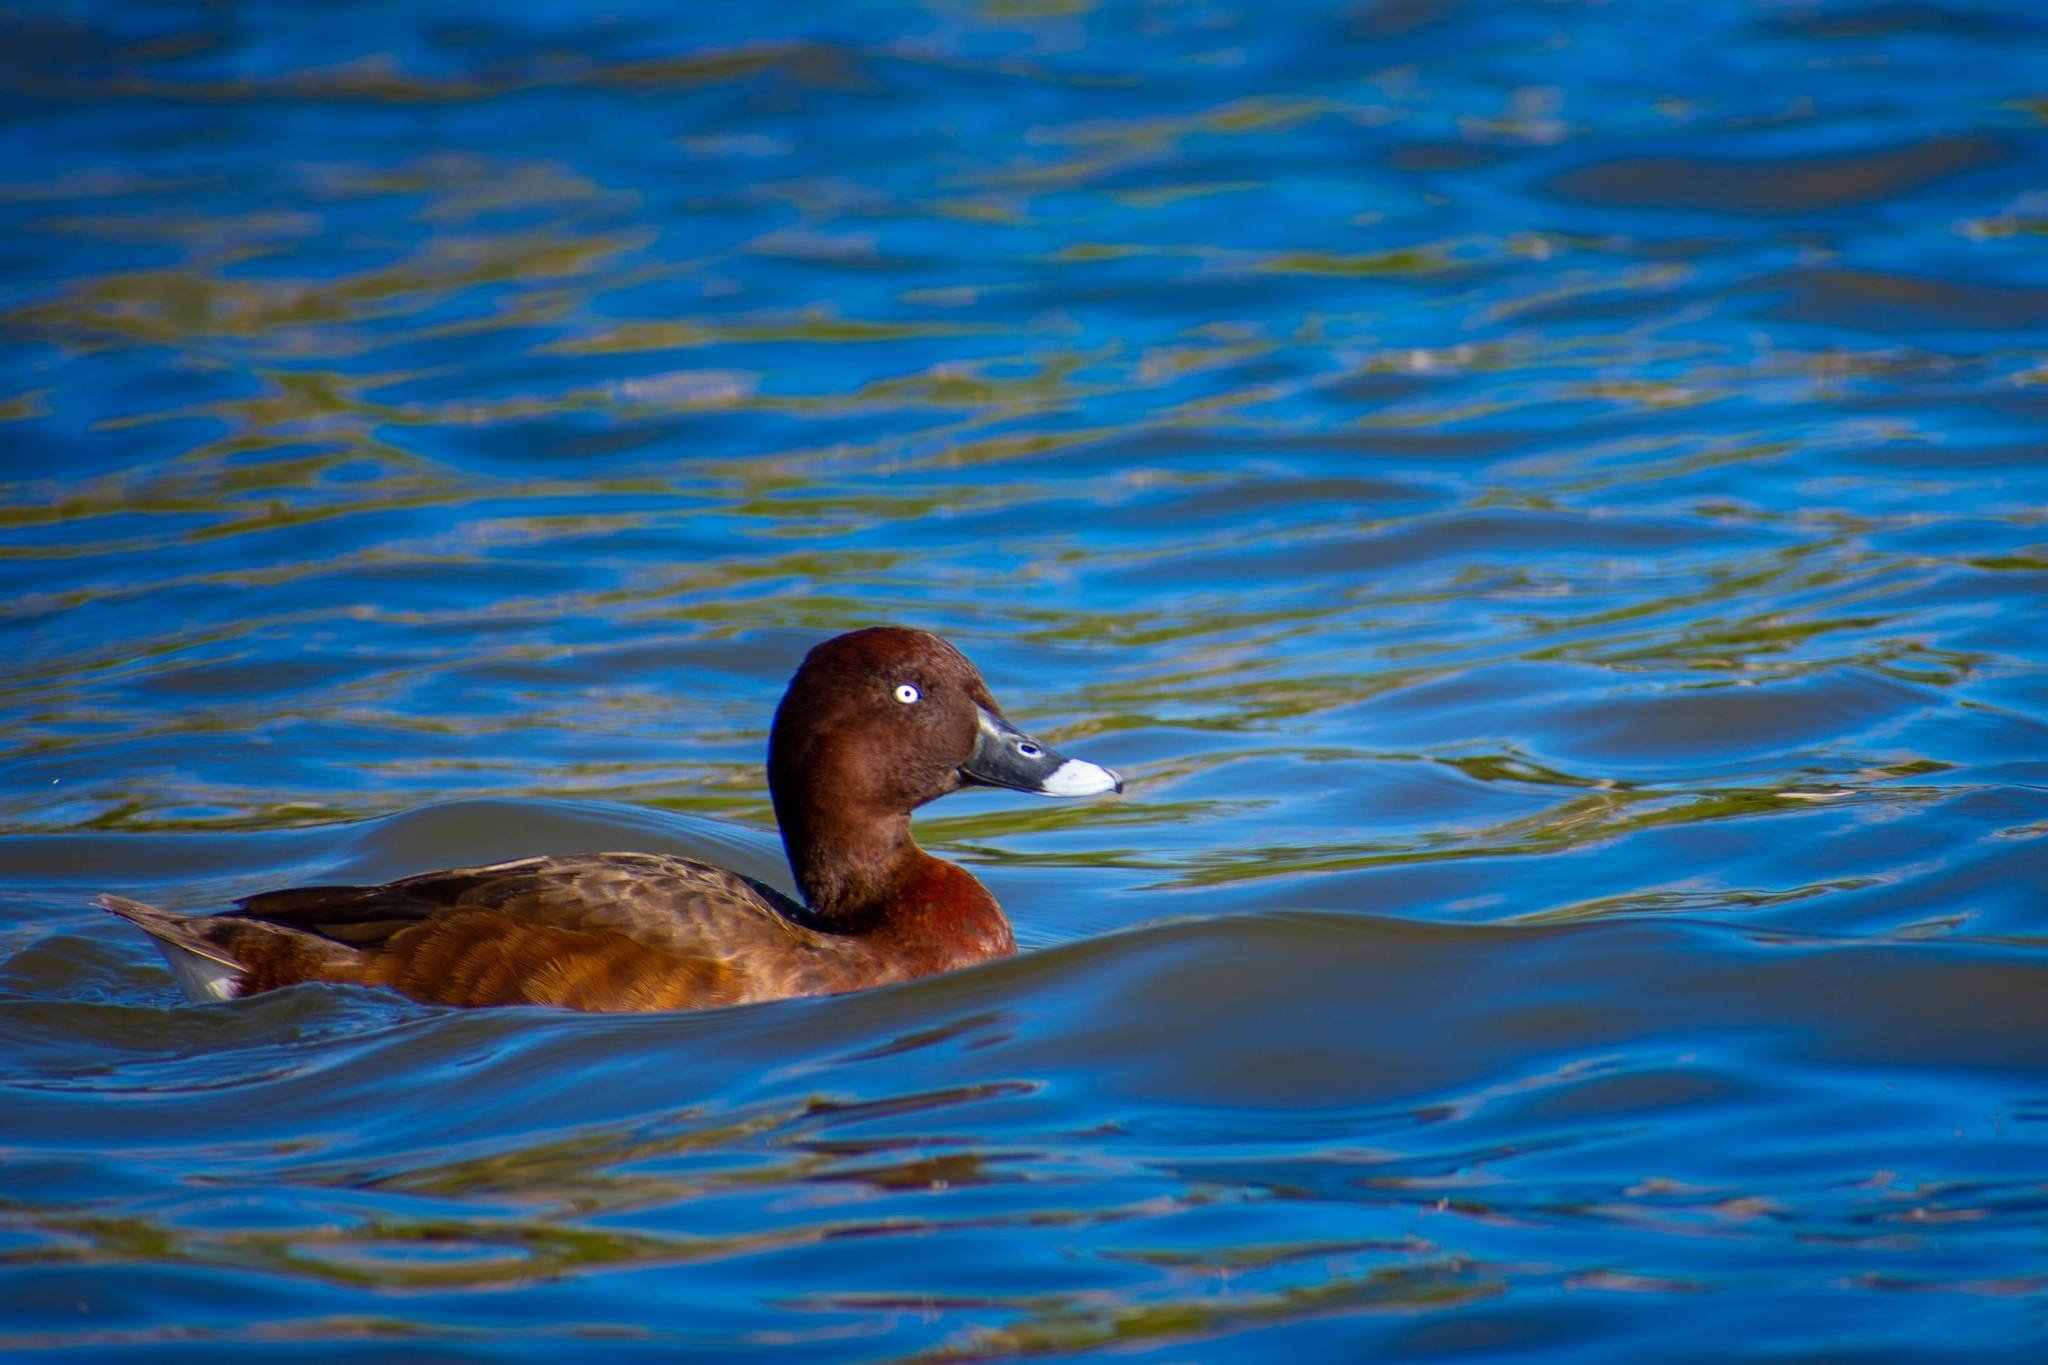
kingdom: Animalia
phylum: Chordata
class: Aves
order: Anseriformes
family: Anatidae
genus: Aythya
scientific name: Aythya australis
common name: Hardhead
